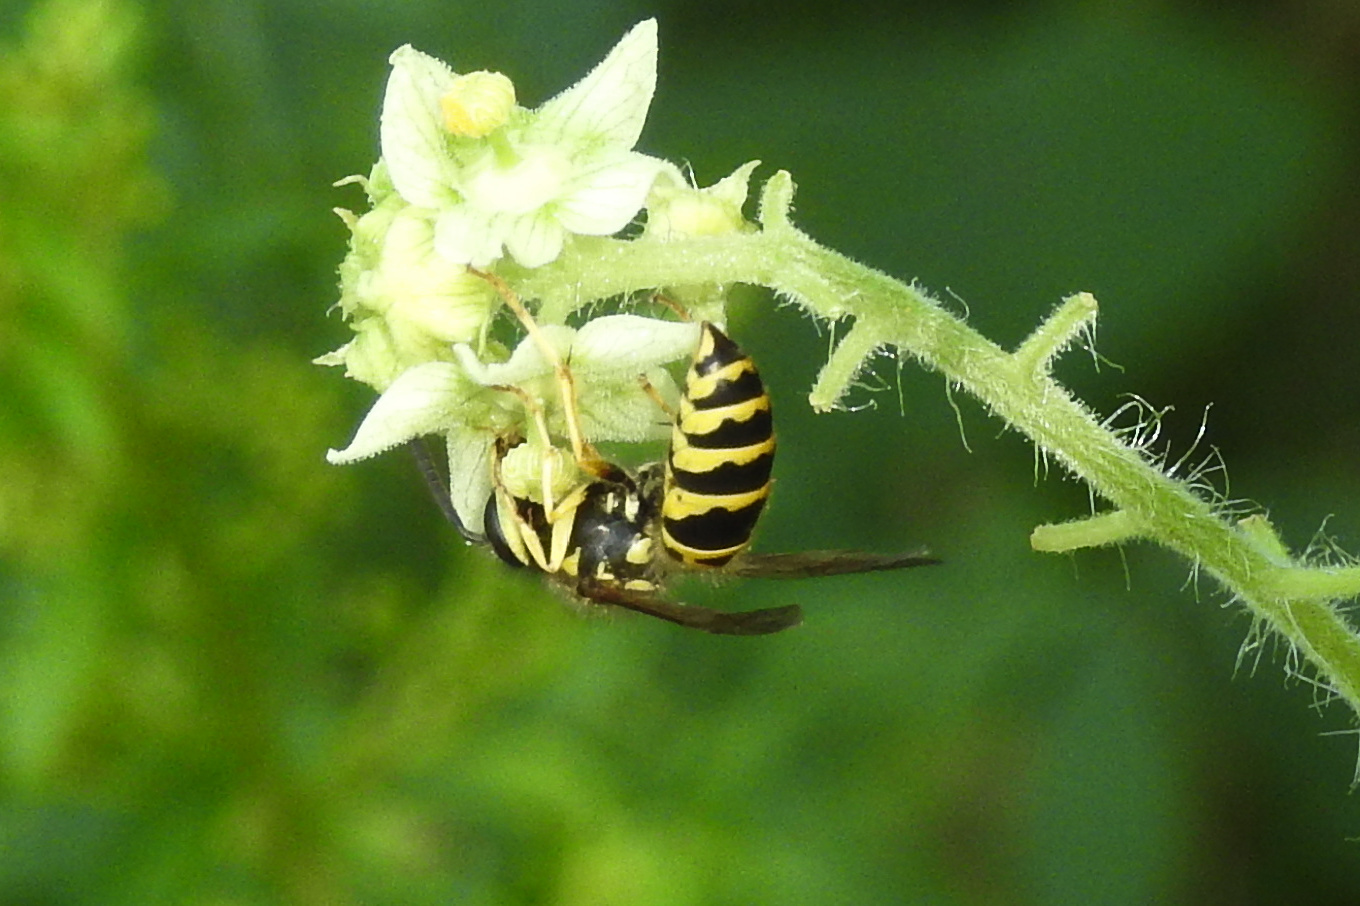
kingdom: Animalia
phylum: Arthropoda
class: Insecta
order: Hymenoptera
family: Vespidae
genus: Vespula
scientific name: Vespula maculifrons
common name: Eastern yellowjacket
